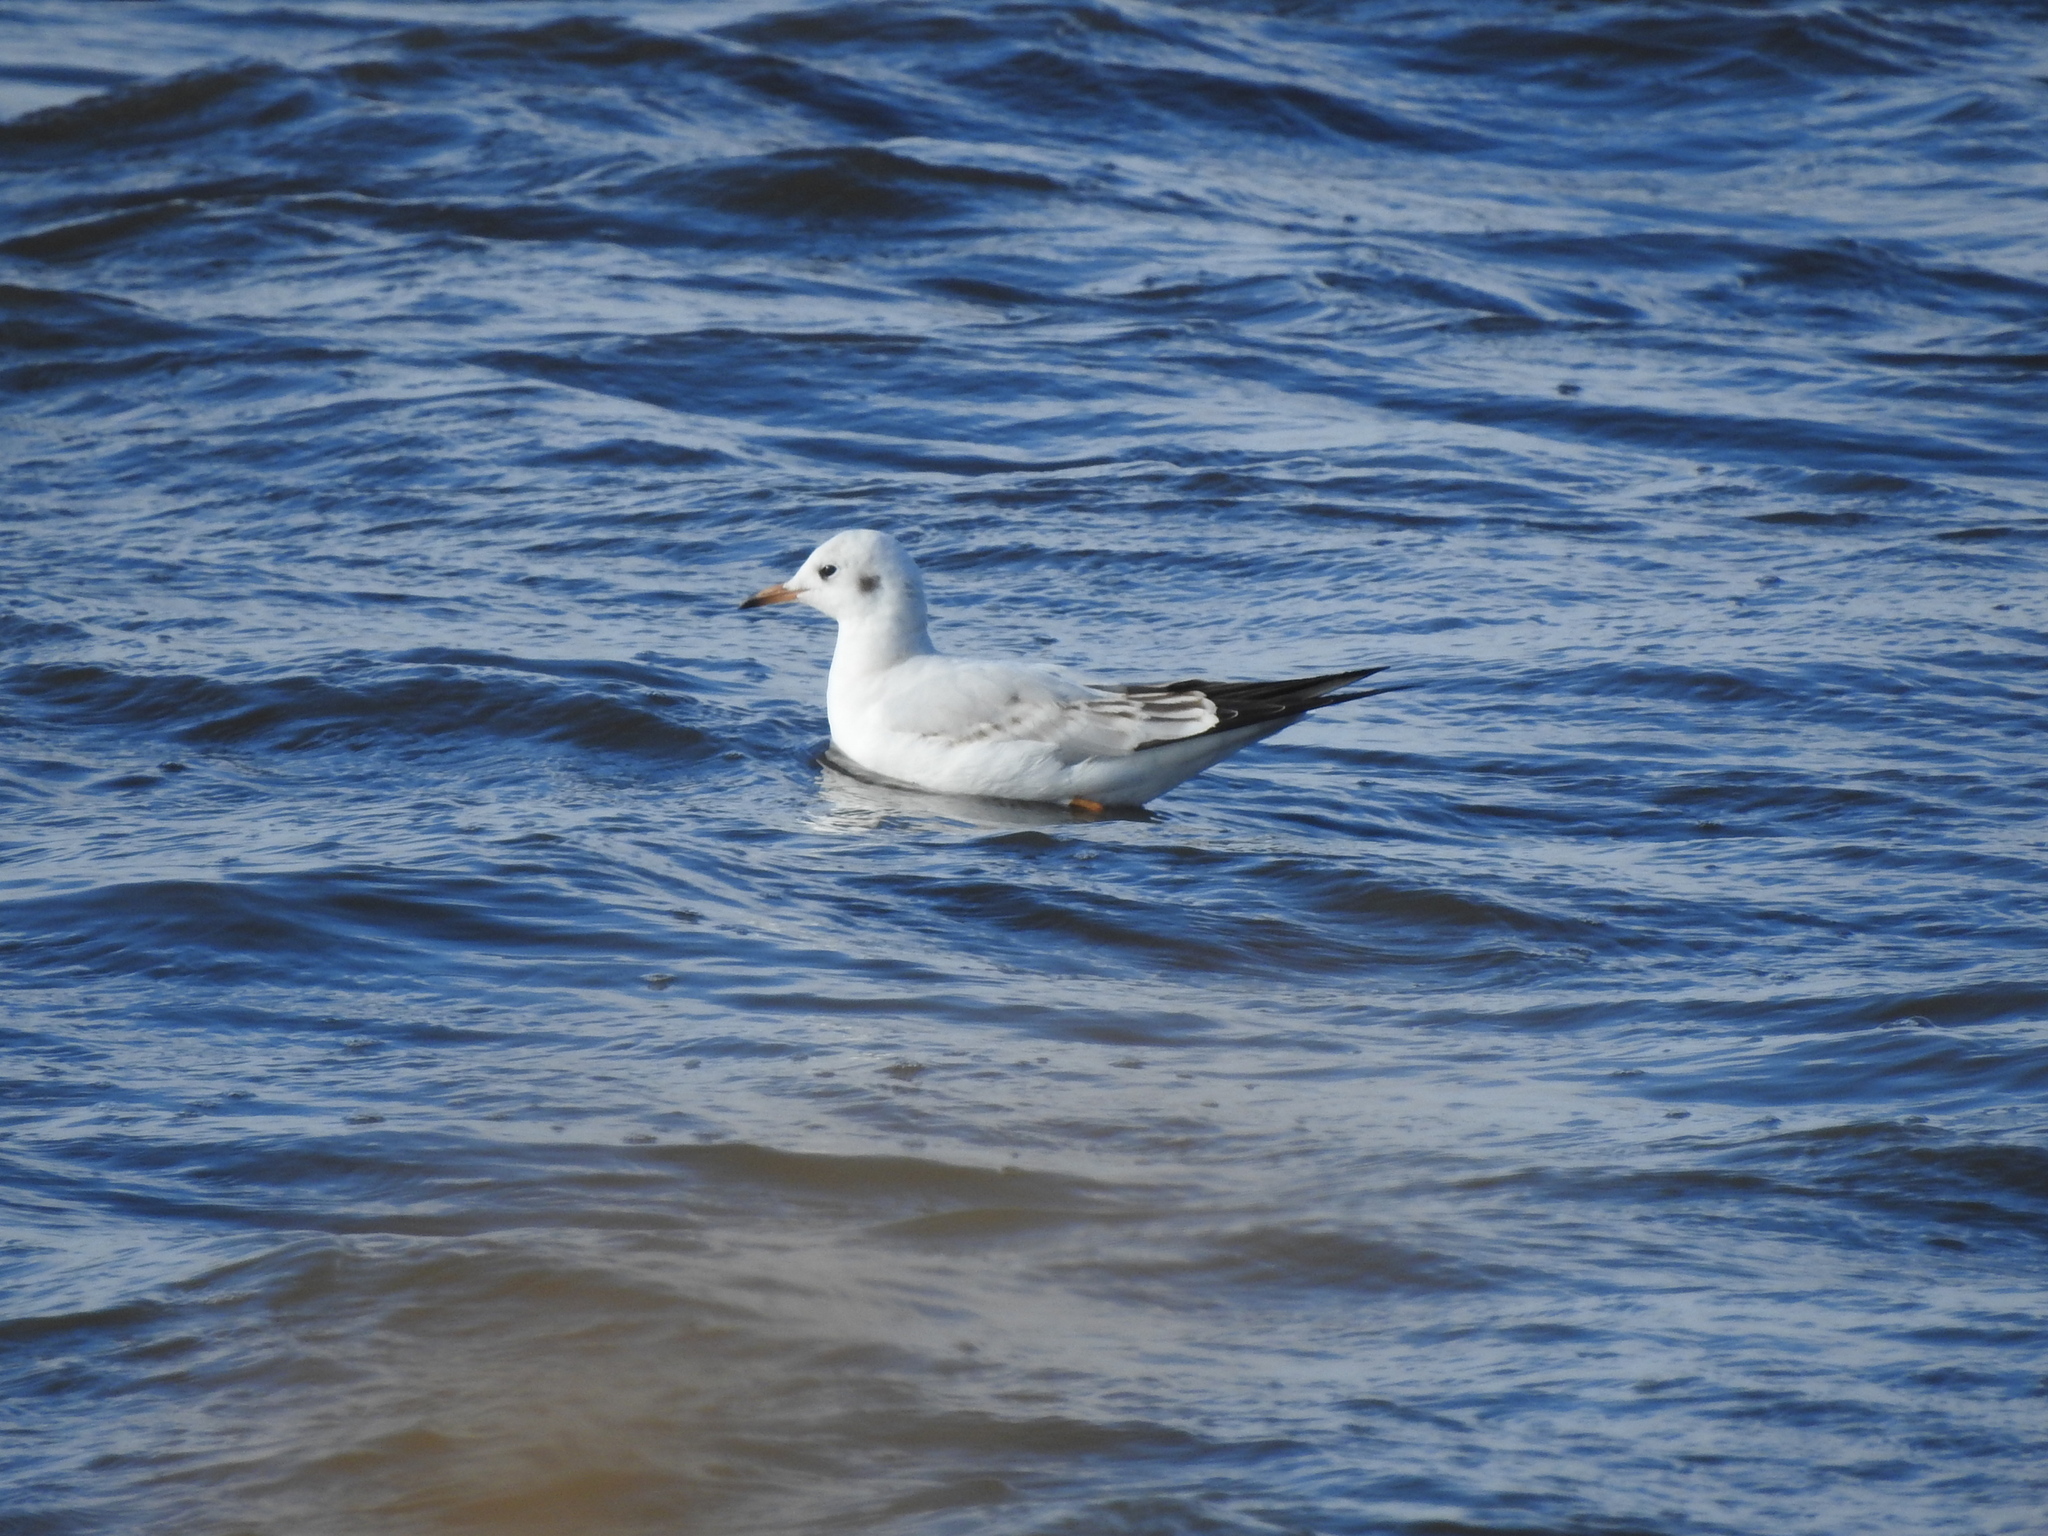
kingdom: Animalia
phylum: Chordata
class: Aves
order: Charadriiformes
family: Laridae
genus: Chroicocephalus
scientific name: Chroicocephalus ridibundus
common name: Black-headed gull
